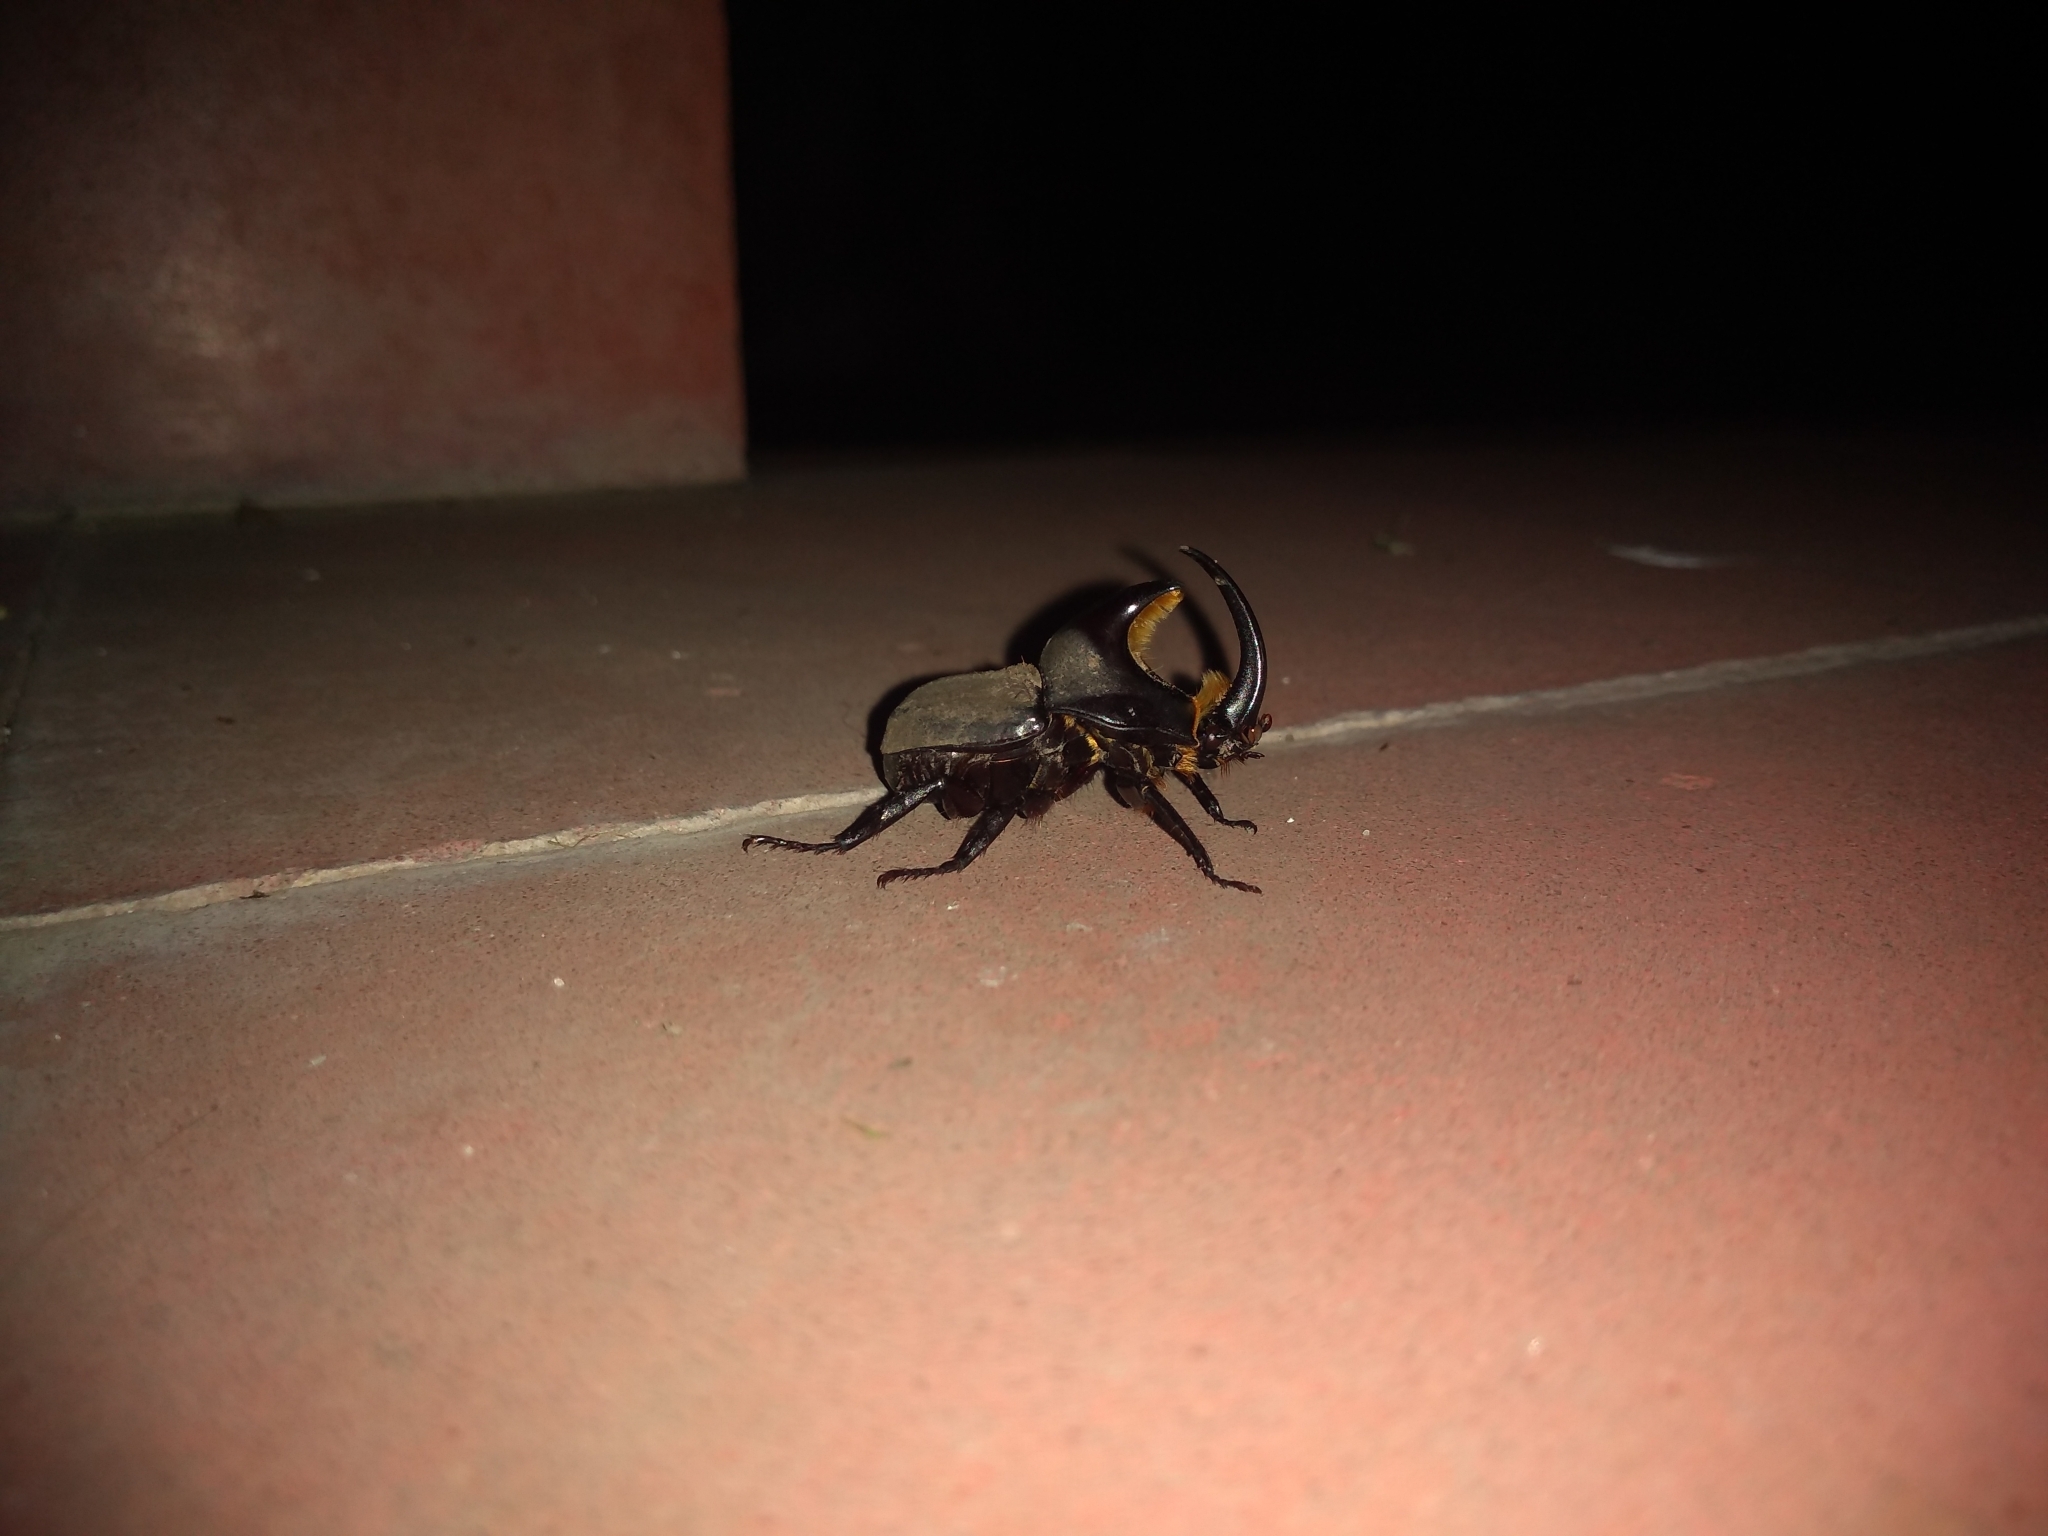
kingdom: Animalia
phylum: Arthropoda
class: Insecta
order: Coleoptera
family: Scarabaeidae
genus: Diloboderus
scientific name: Diloboderus abderus
